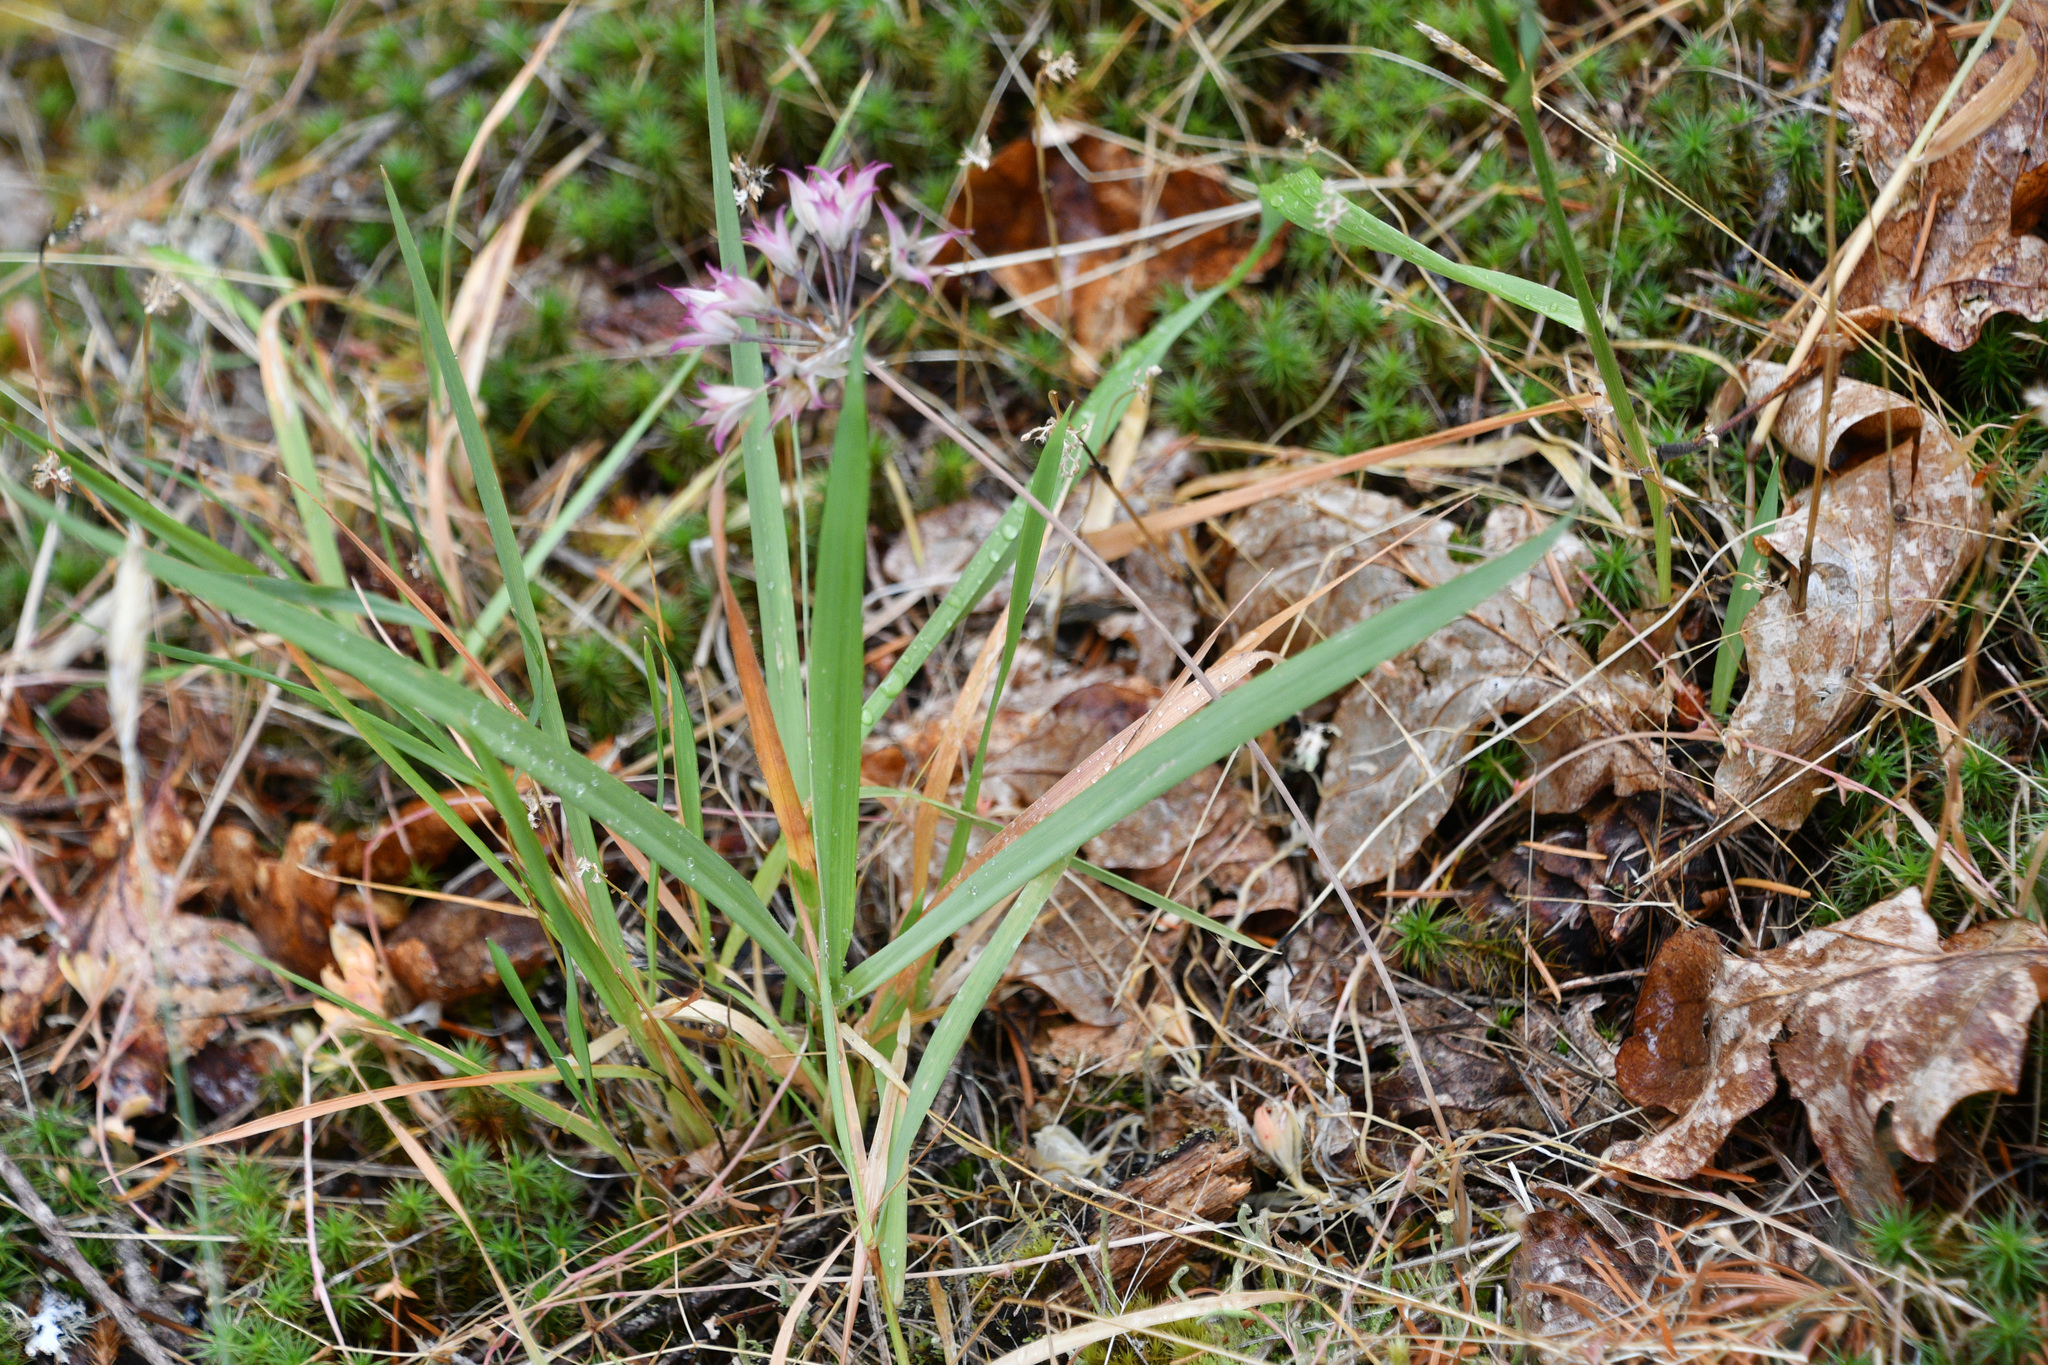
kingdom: Plantae
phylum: Tracheophyta
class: Liliopsida
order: Asparagales
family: Amaryllidaceae
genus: Allium
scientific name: Allium acuminatum
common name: Hooker's onion
